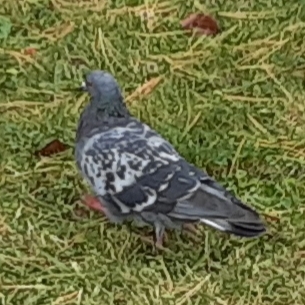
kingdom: Animalia
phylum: Chordata
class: Aves
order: Columbiformes
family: Columbidae
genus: Columba
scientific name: Columba livia
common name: Rock pigeon
